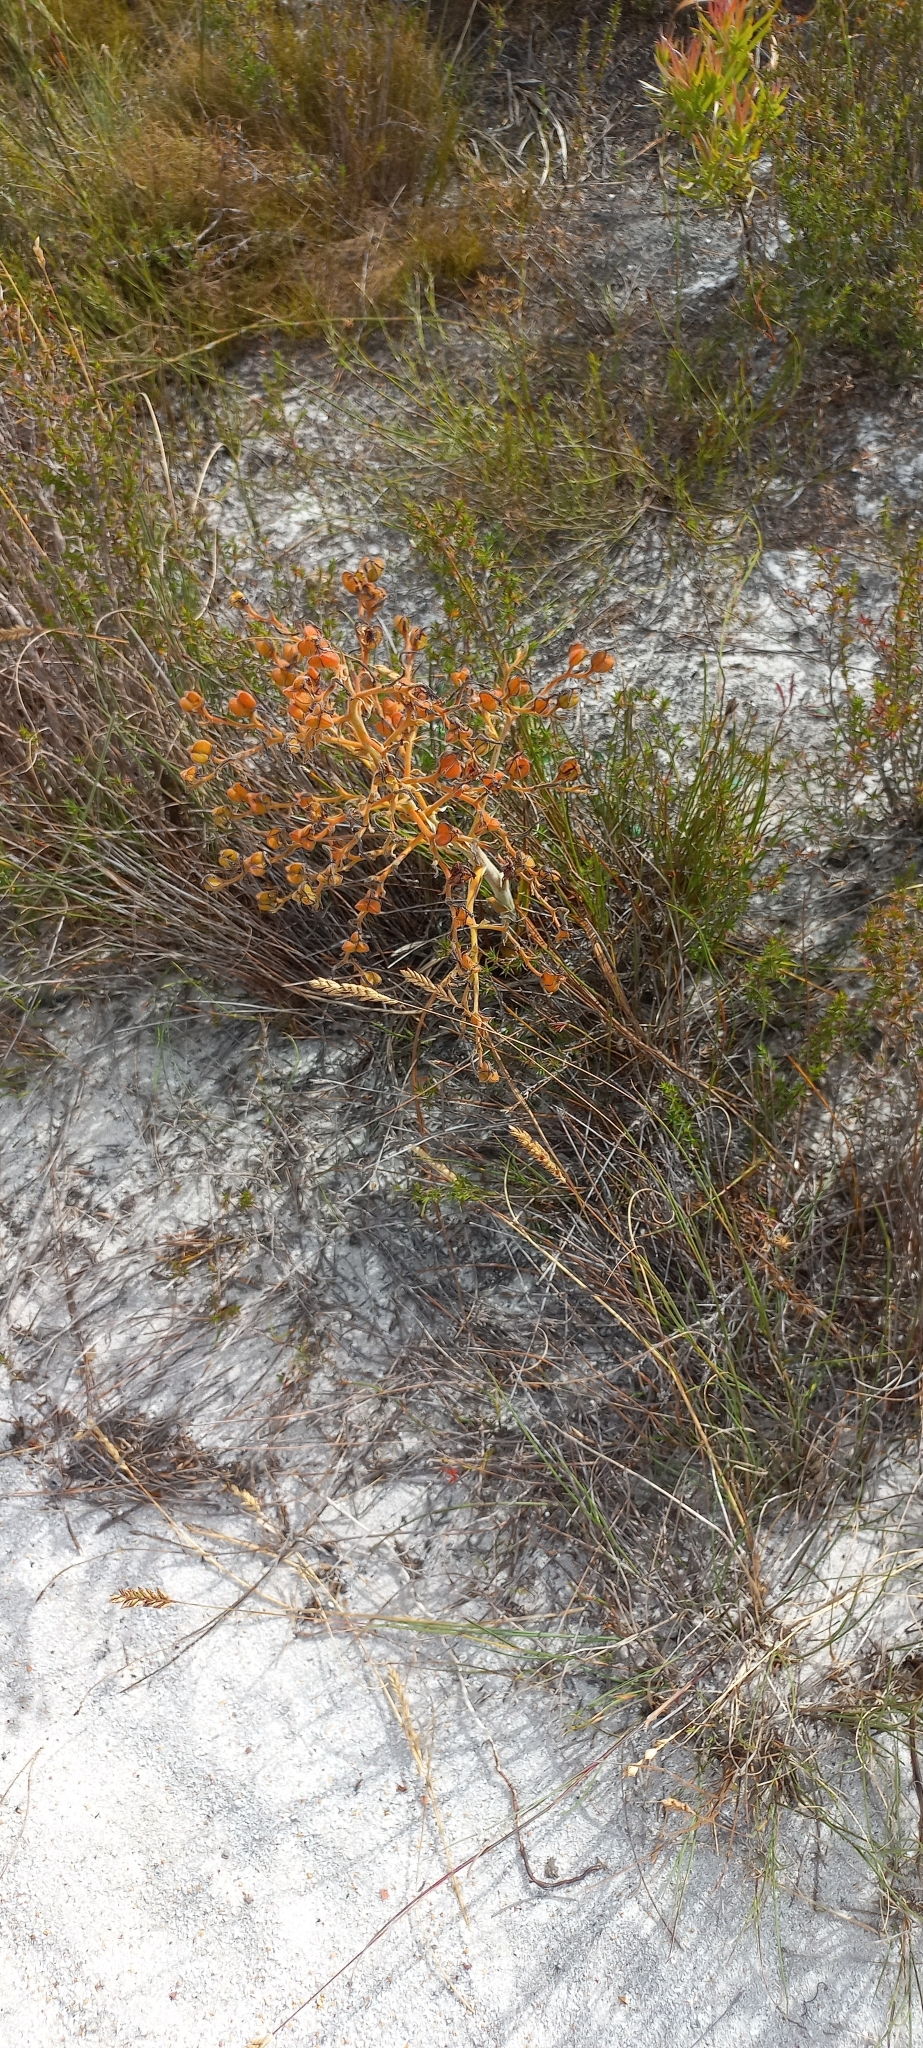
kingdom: Plantae
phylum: Tracheophyta
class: Liliopsida
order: Commelinales
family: Haemodoraceae
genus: Wachendorfia
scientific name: Wachendorfia paniculata
